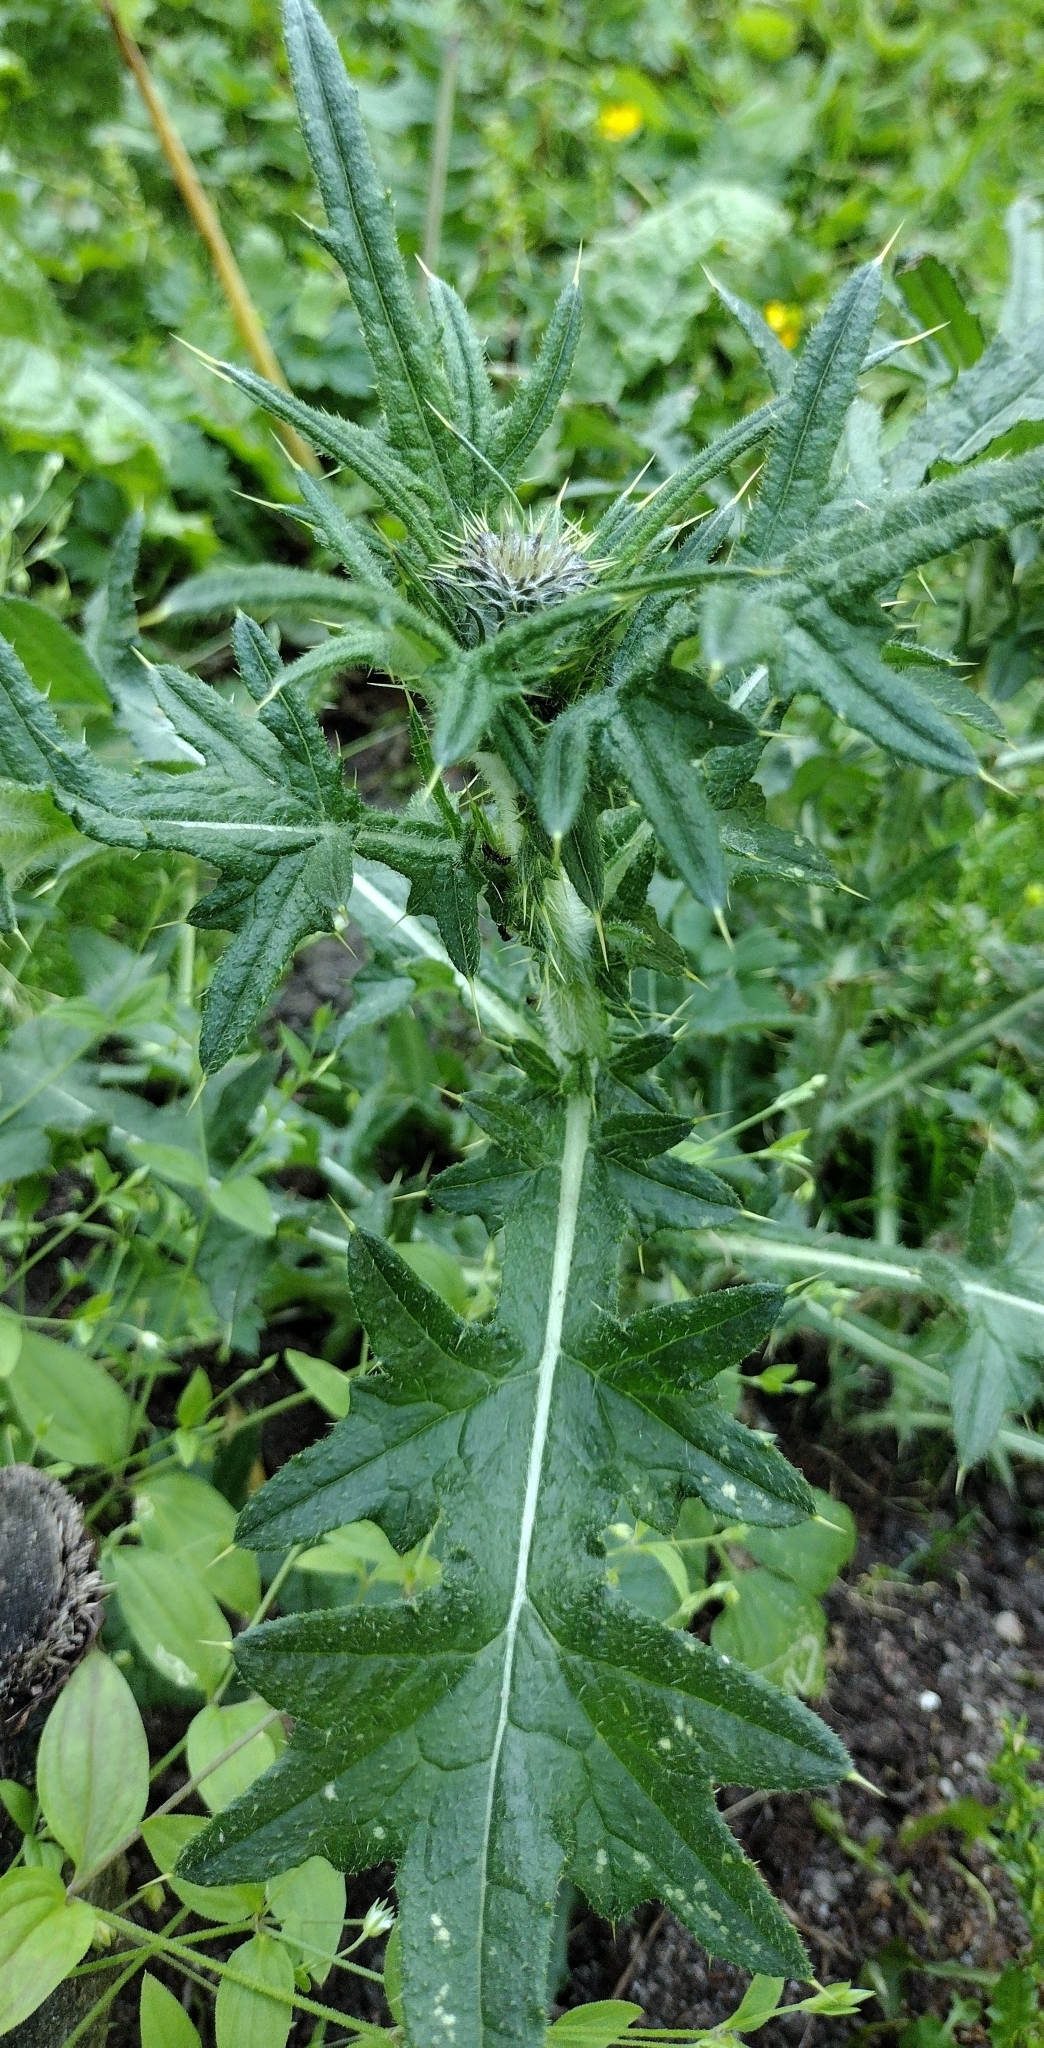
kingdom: Plantae
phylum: Tracheophyta
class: Magnoliopsida
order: Asterales
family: Asteraceae
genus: Cirsium
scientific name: Cirsium vulgare
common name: Bull thistle
